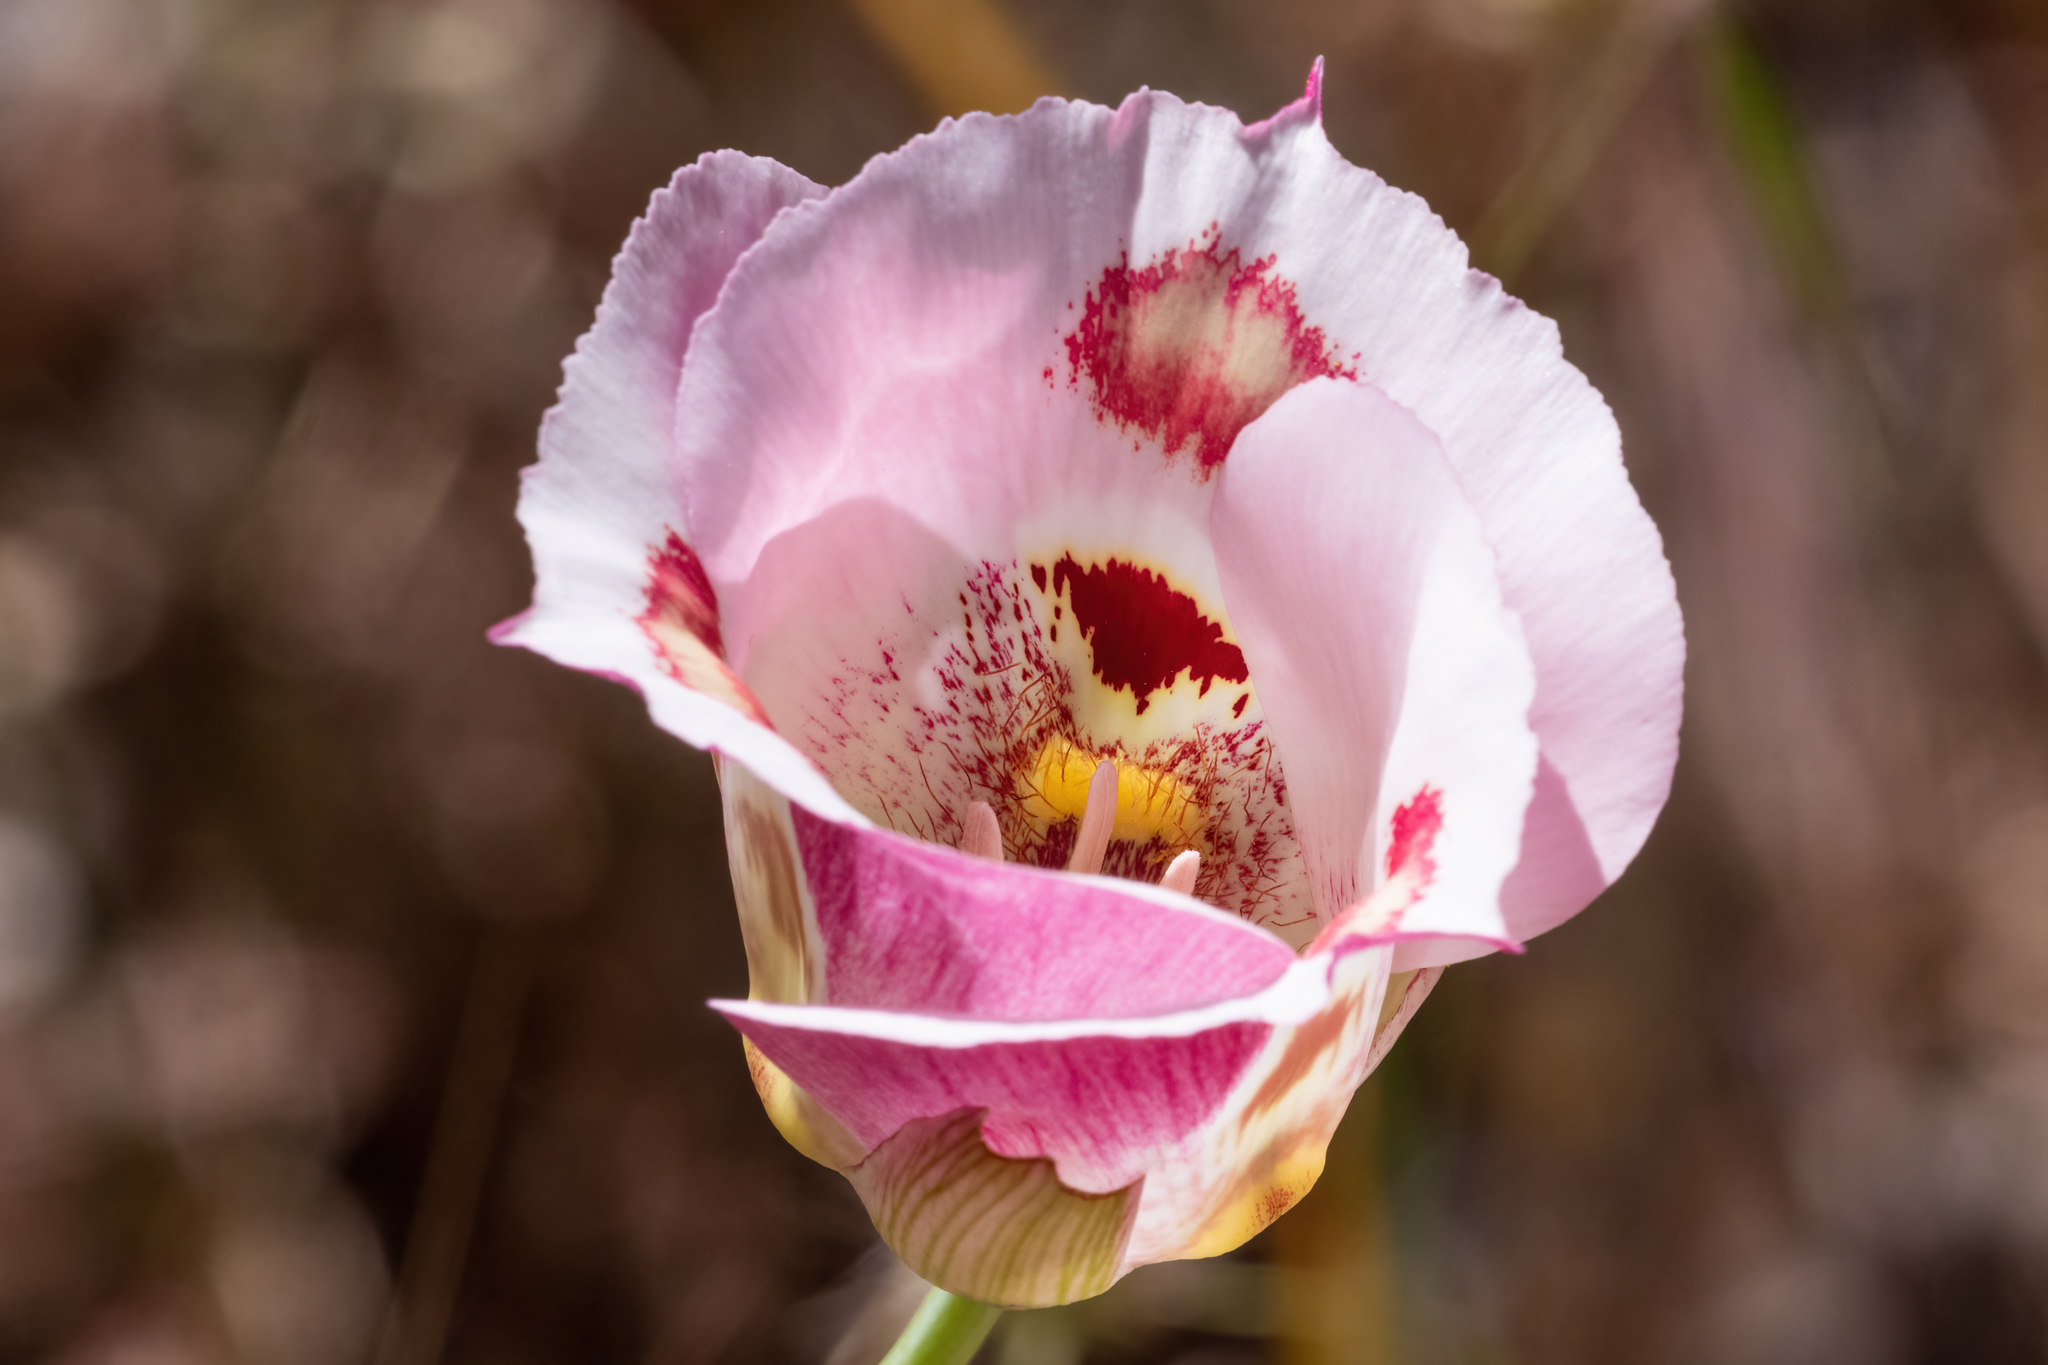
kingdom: Plantae
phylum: Tracheophyta
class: Liliopsida
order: Liliales
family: Liliaceae
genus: Calochortus
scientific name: Calochortus venustus
